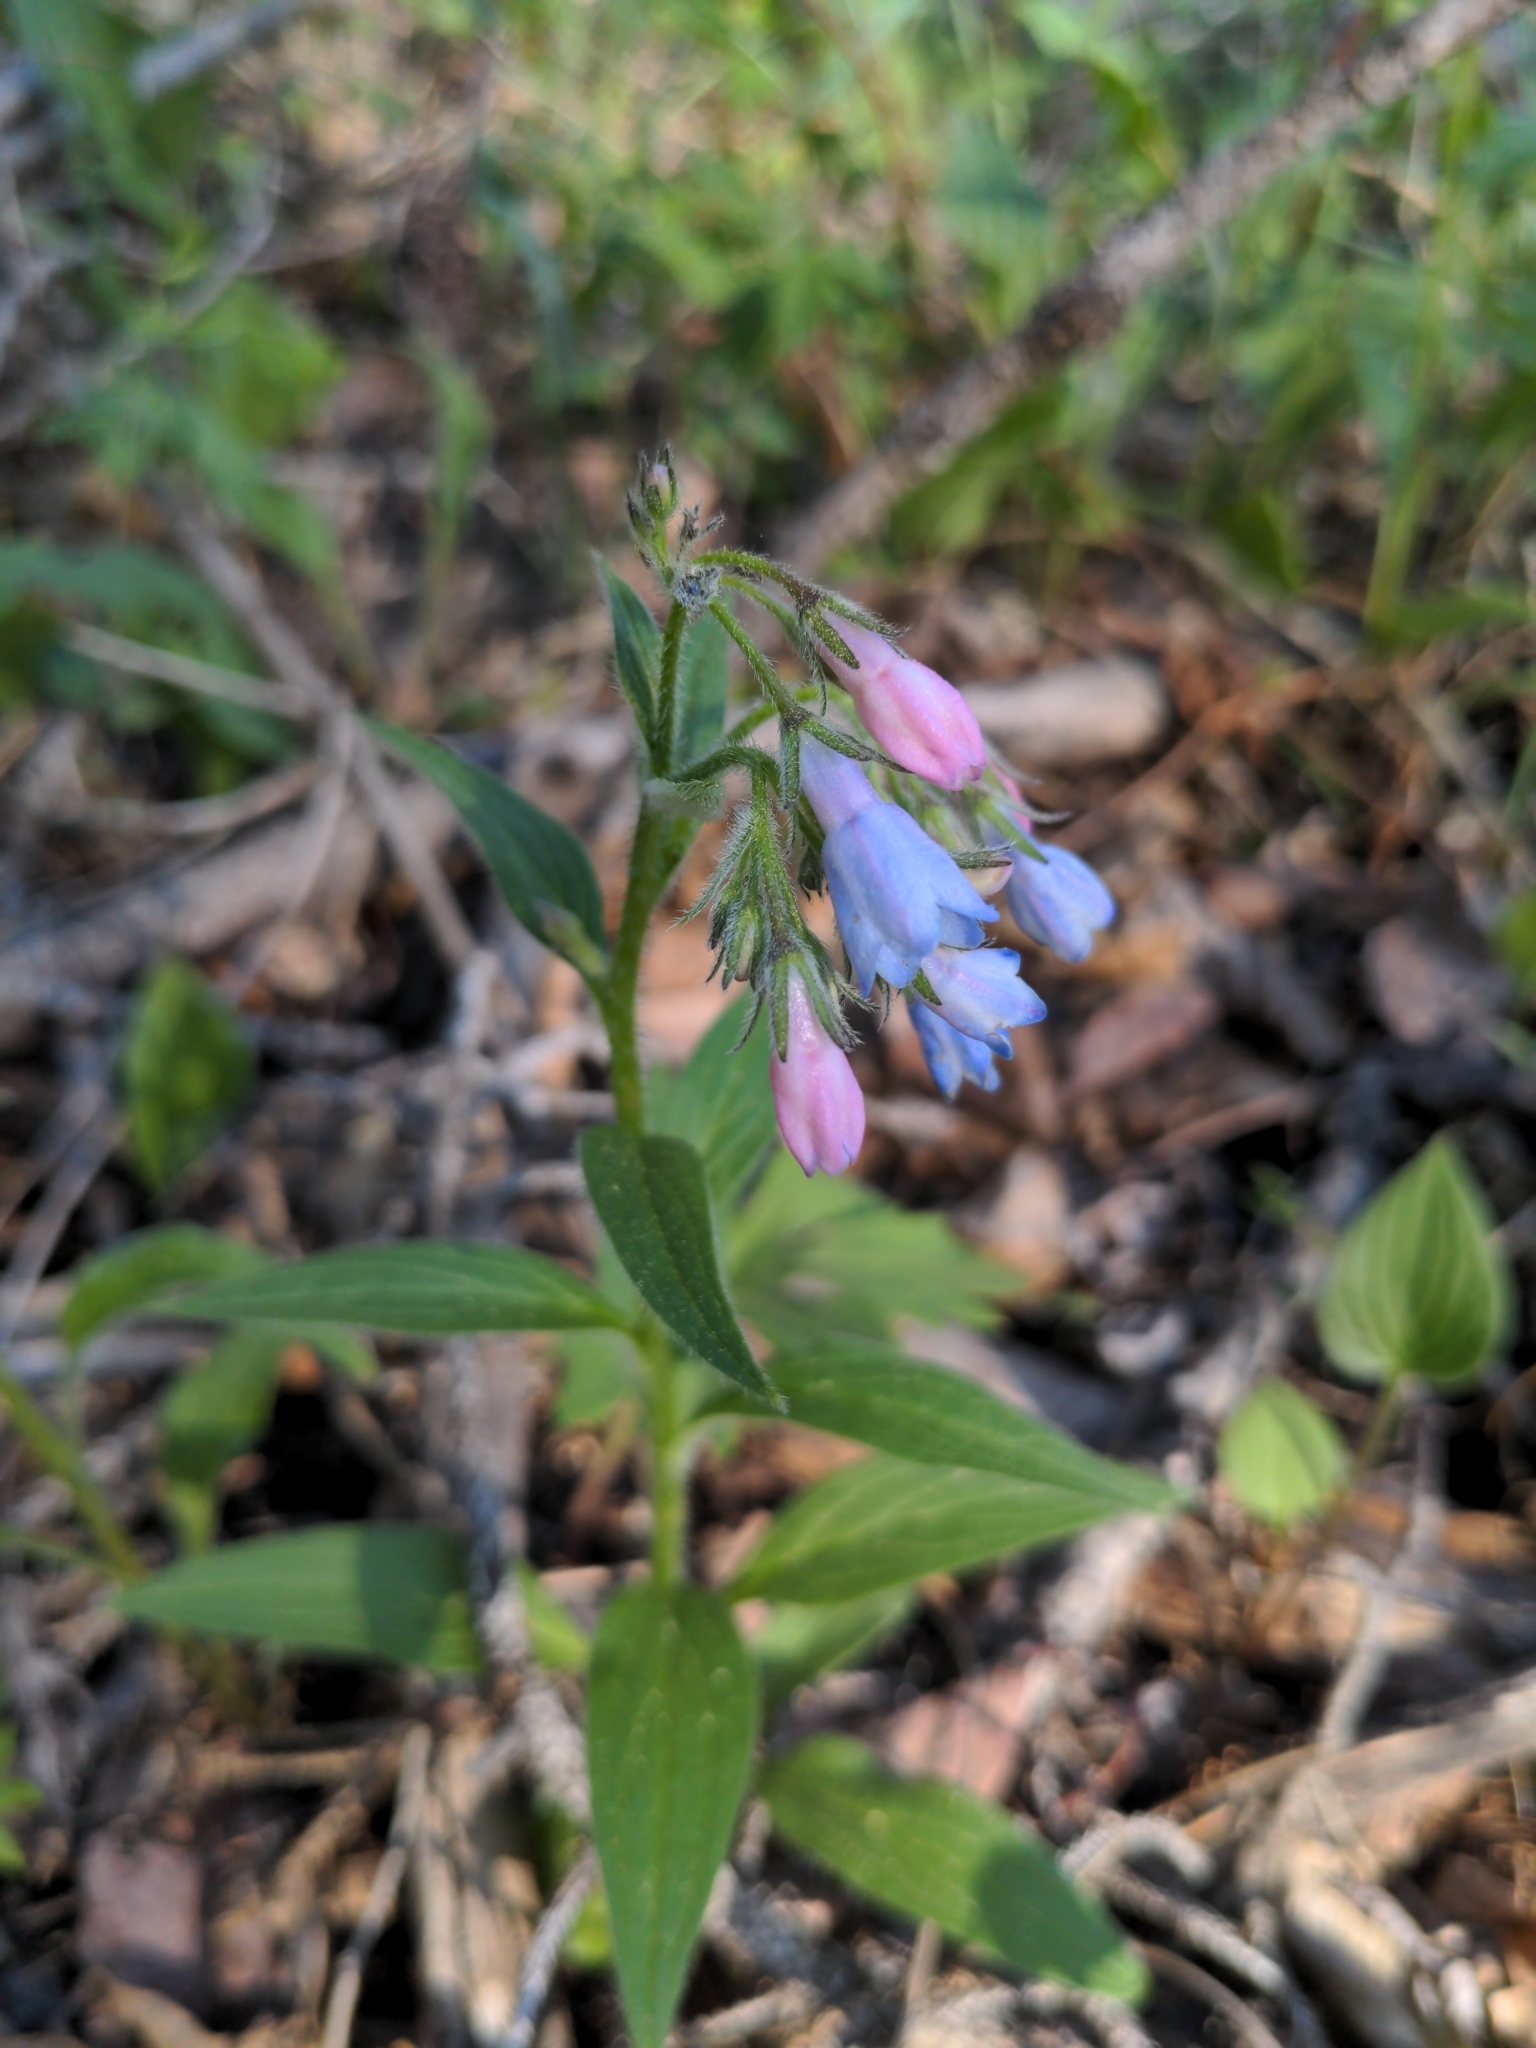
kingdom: Plantae
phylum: Tracheophyta
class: Magnoliopsida
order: Boraginales
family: Boraginaceae
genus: Mertensia
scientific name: Mertensia paniculata
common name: Panicled bluebells
